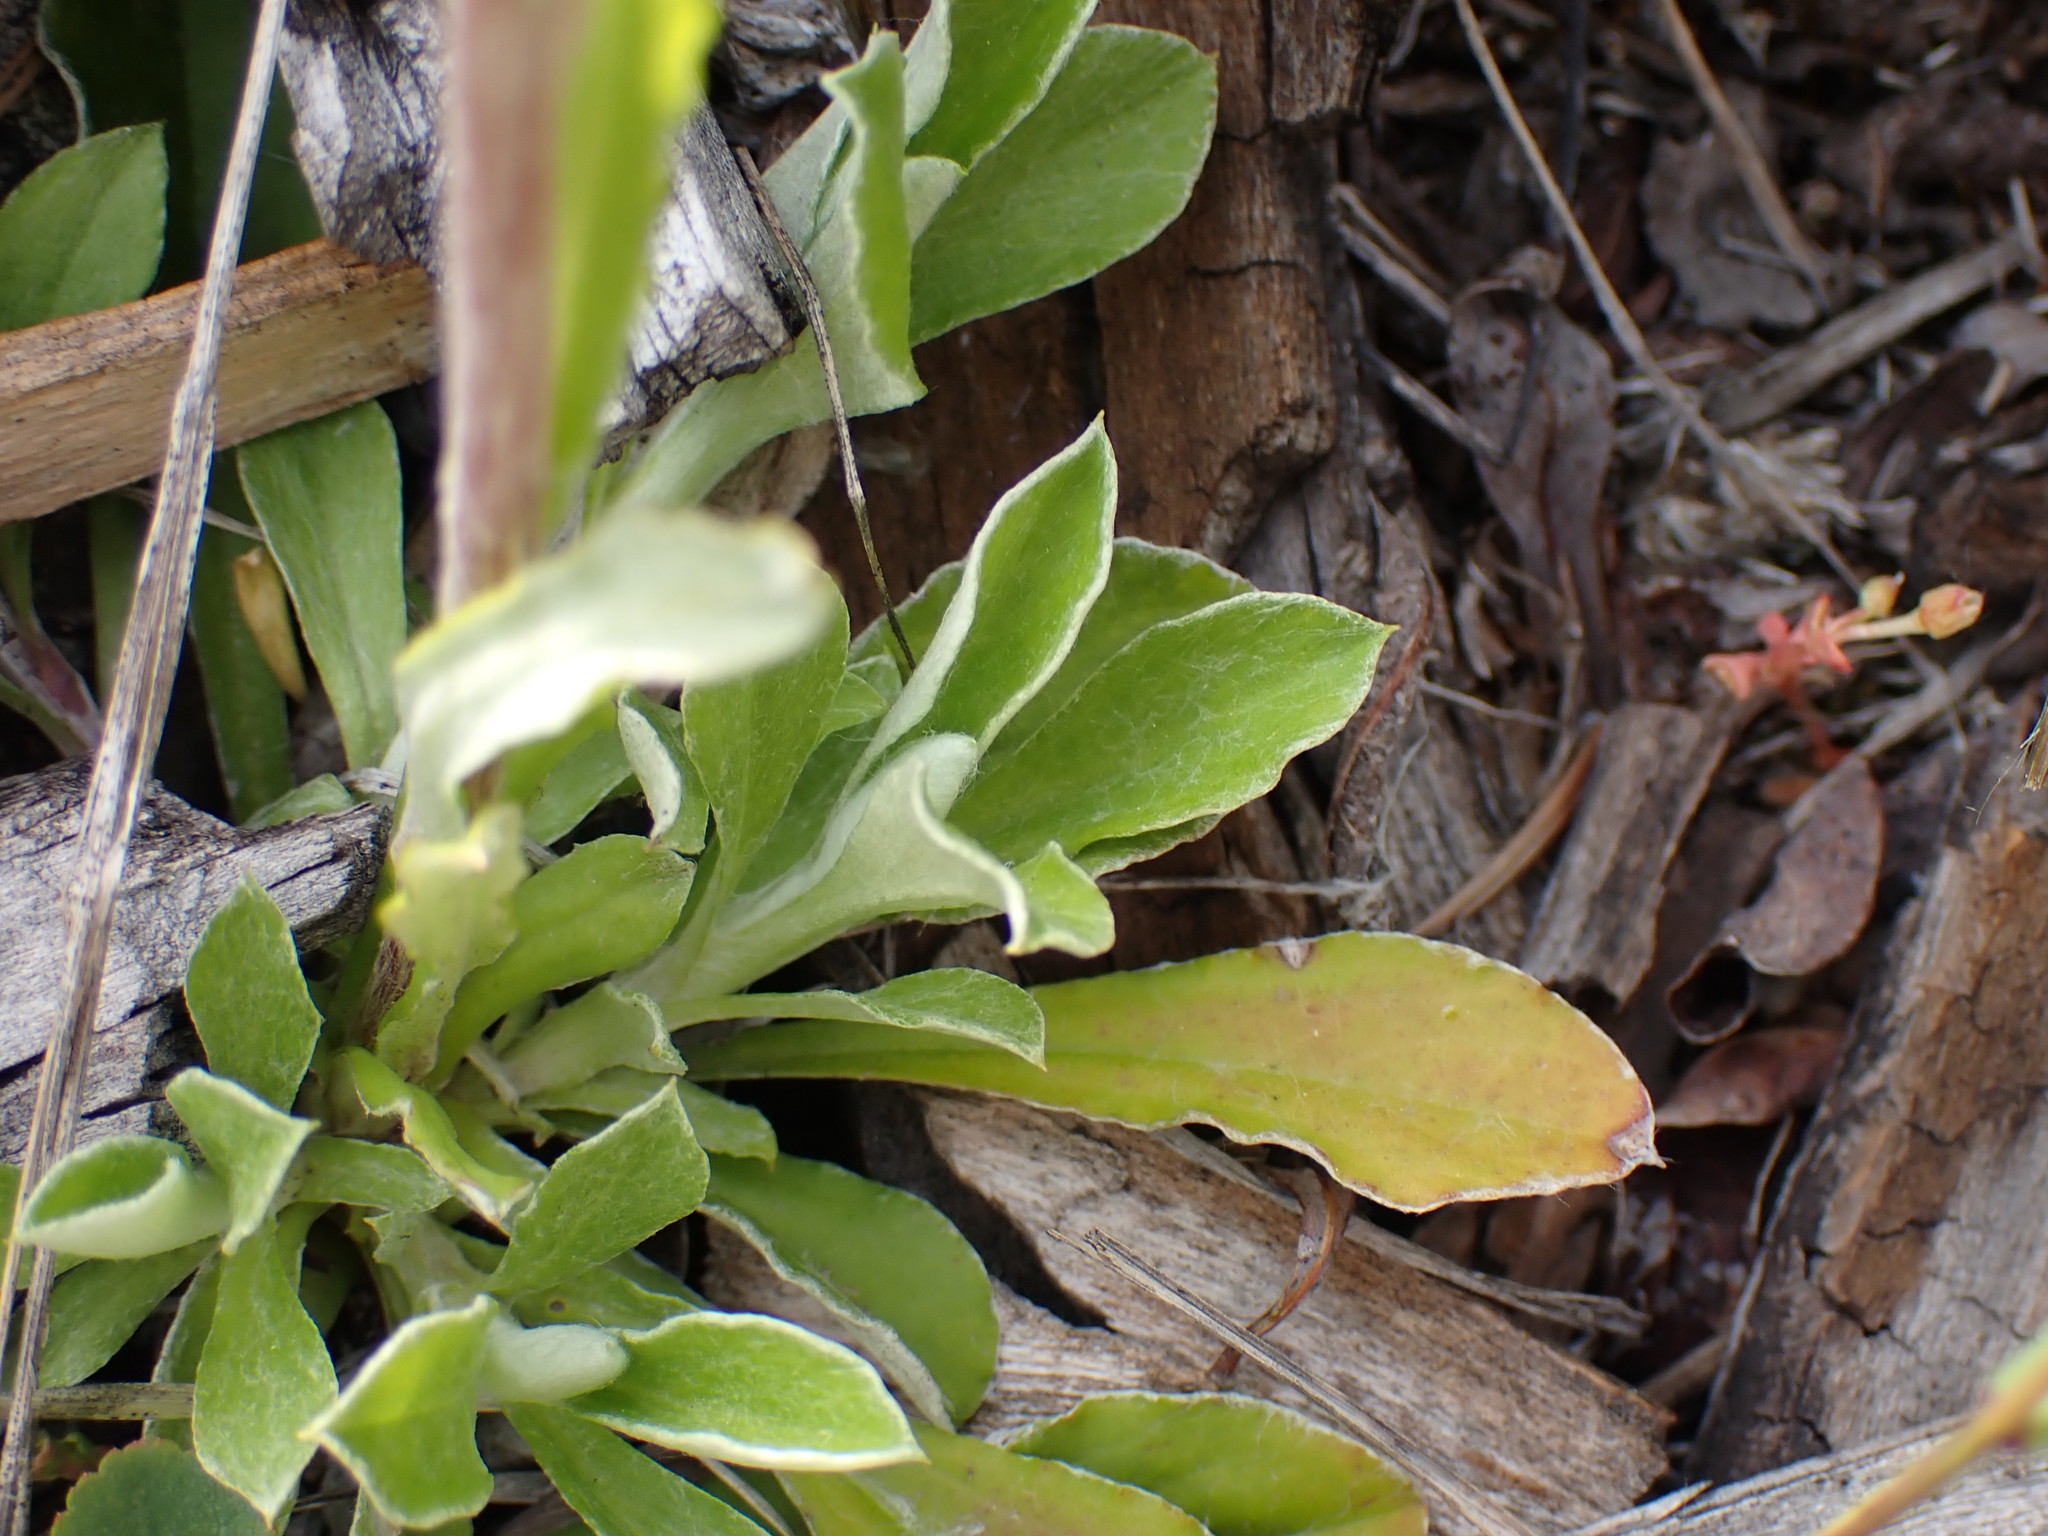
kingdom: Plantae
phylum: Tracheophyta
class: Magnoliopsida
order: Asterales
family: Asteraceae
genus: Antennaria
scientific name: Antennaria howellii
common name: Howell's pussytoes
